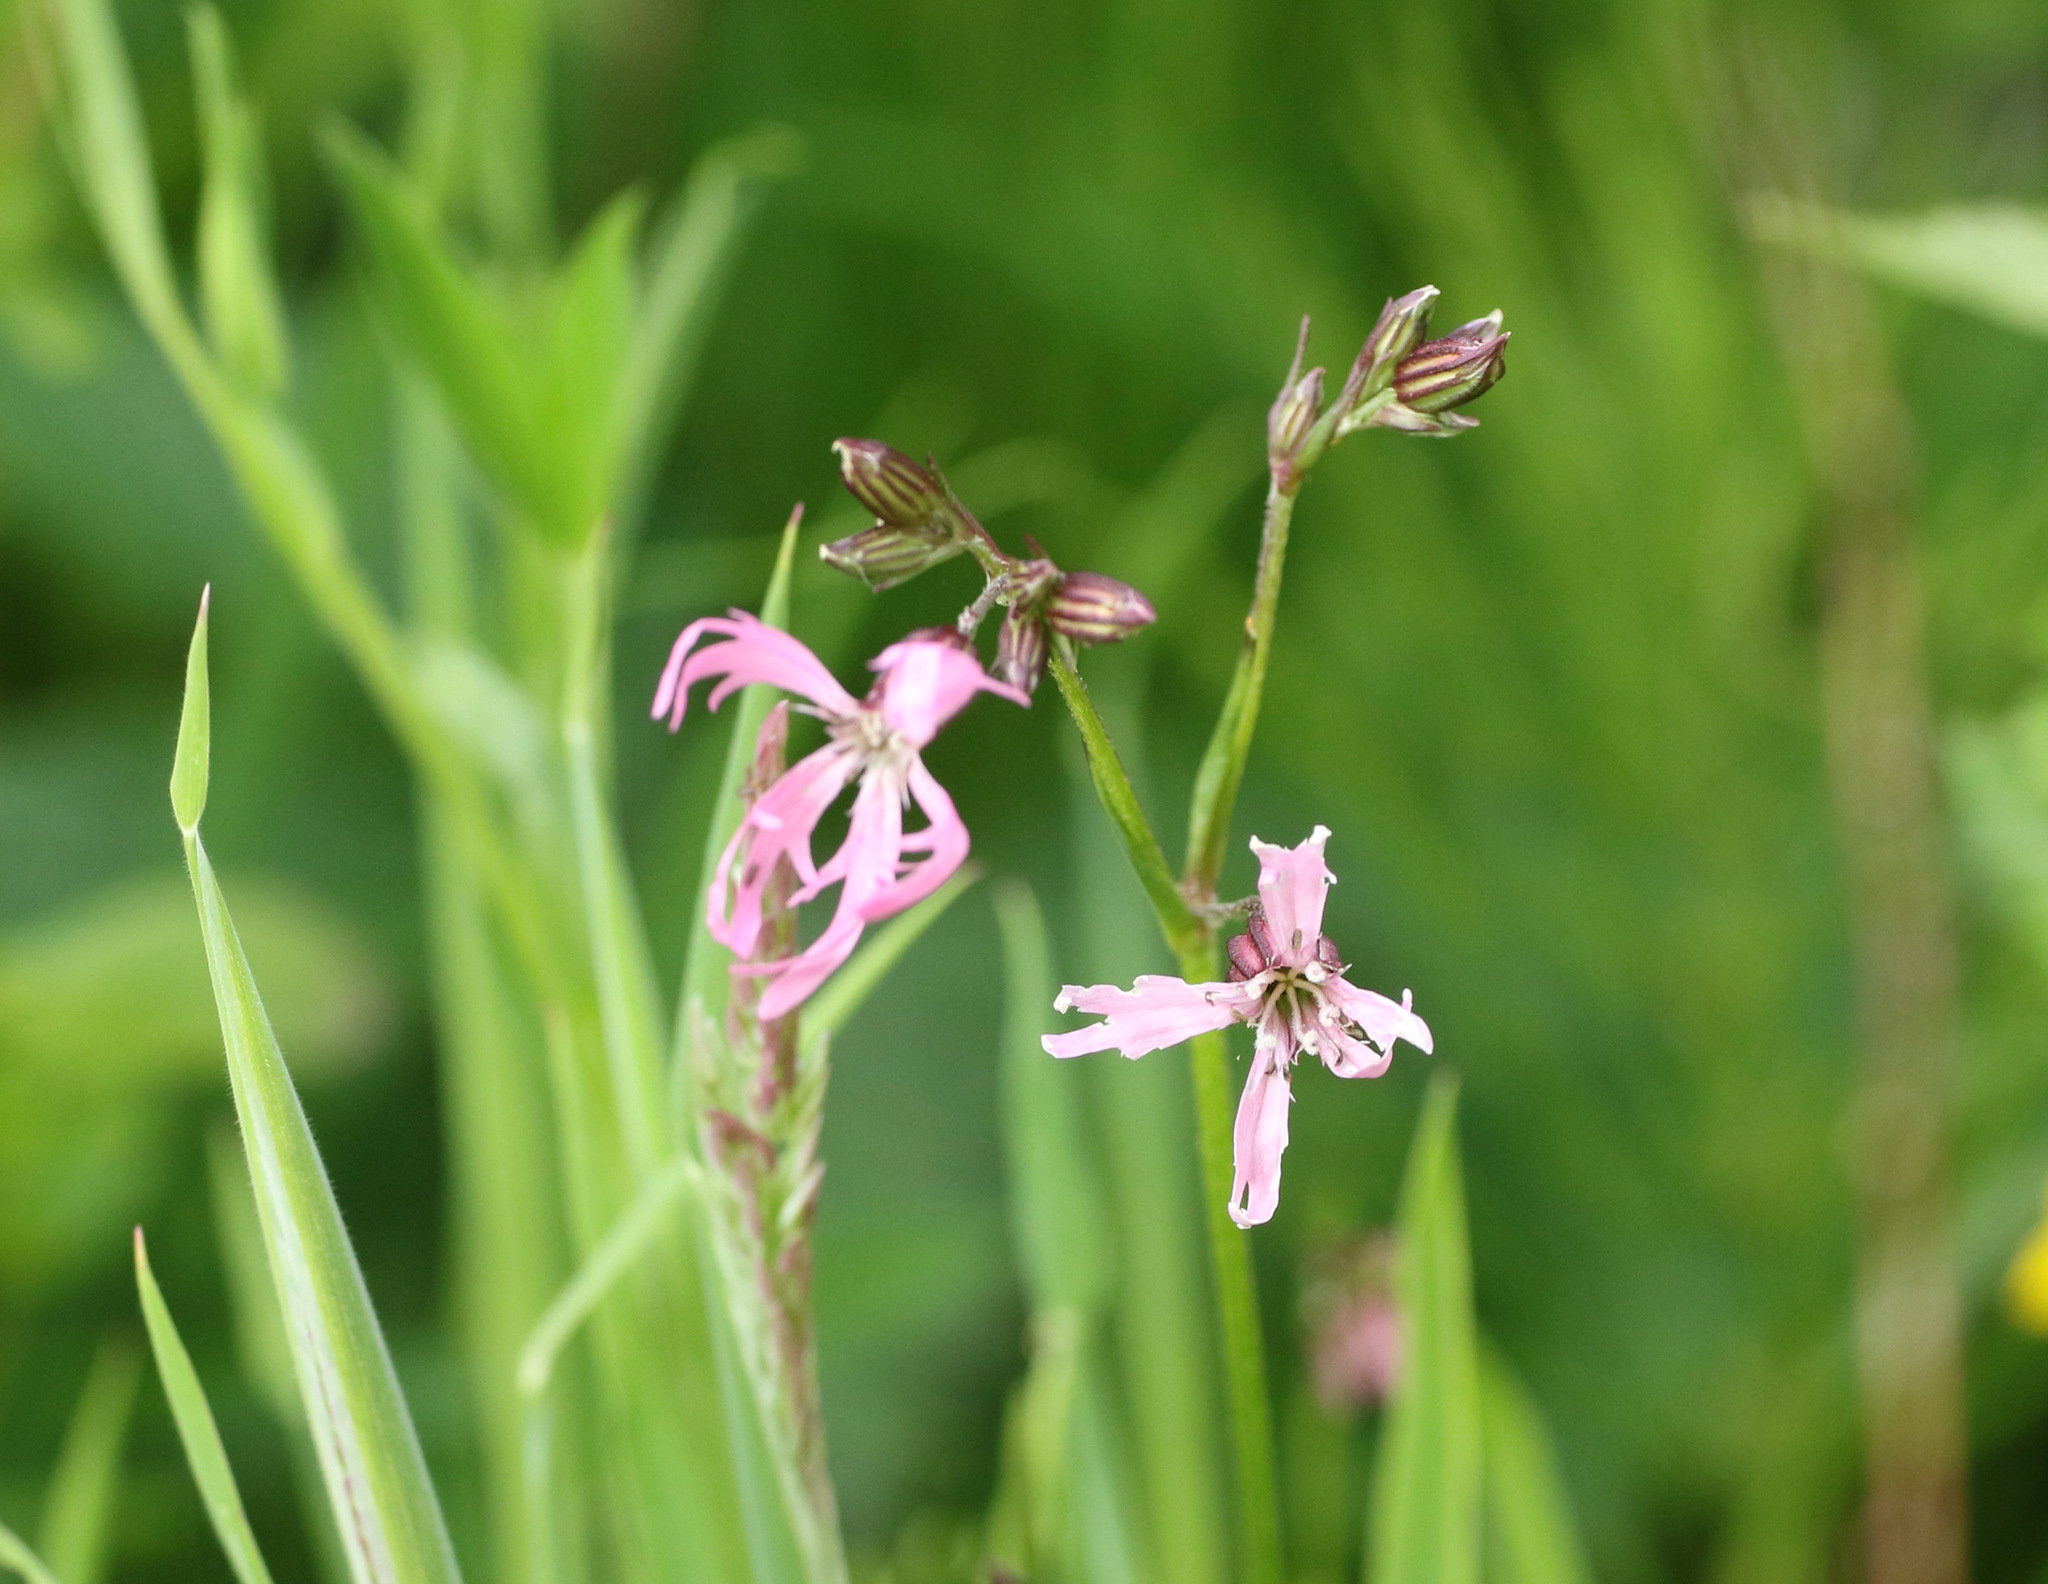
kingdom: Plantae
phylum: Tracheophyta
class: Magnoliopsida
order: Caryophyllales
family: Caryophyllaceae
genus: Silene
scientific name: Silene flos-cuculi
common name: Ragged-robin
